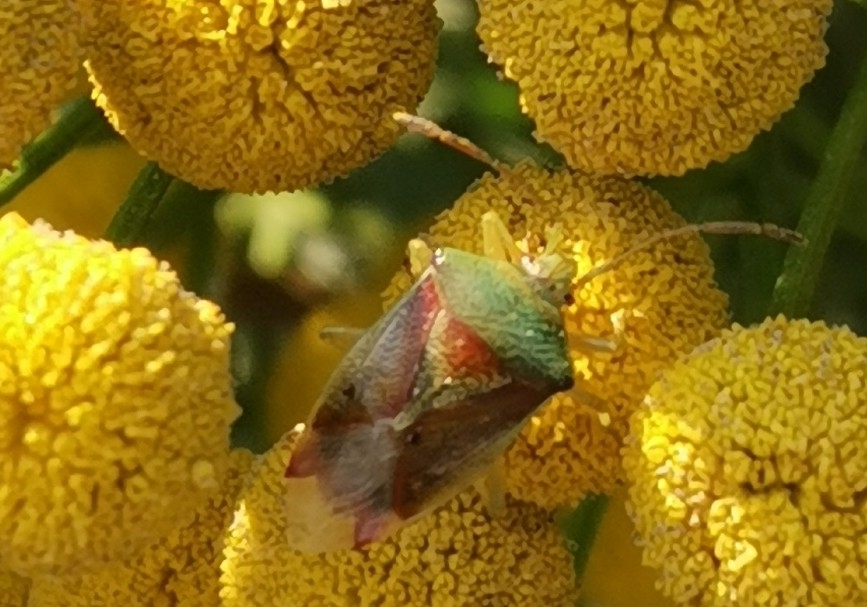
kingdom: Animalia
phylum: Arthropoda
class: Insecta
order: Hemiptera
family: Acanthosomatidae
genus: Elasmostethus
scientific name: Elasmostethus interstinctus
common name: Birch shieldbug
